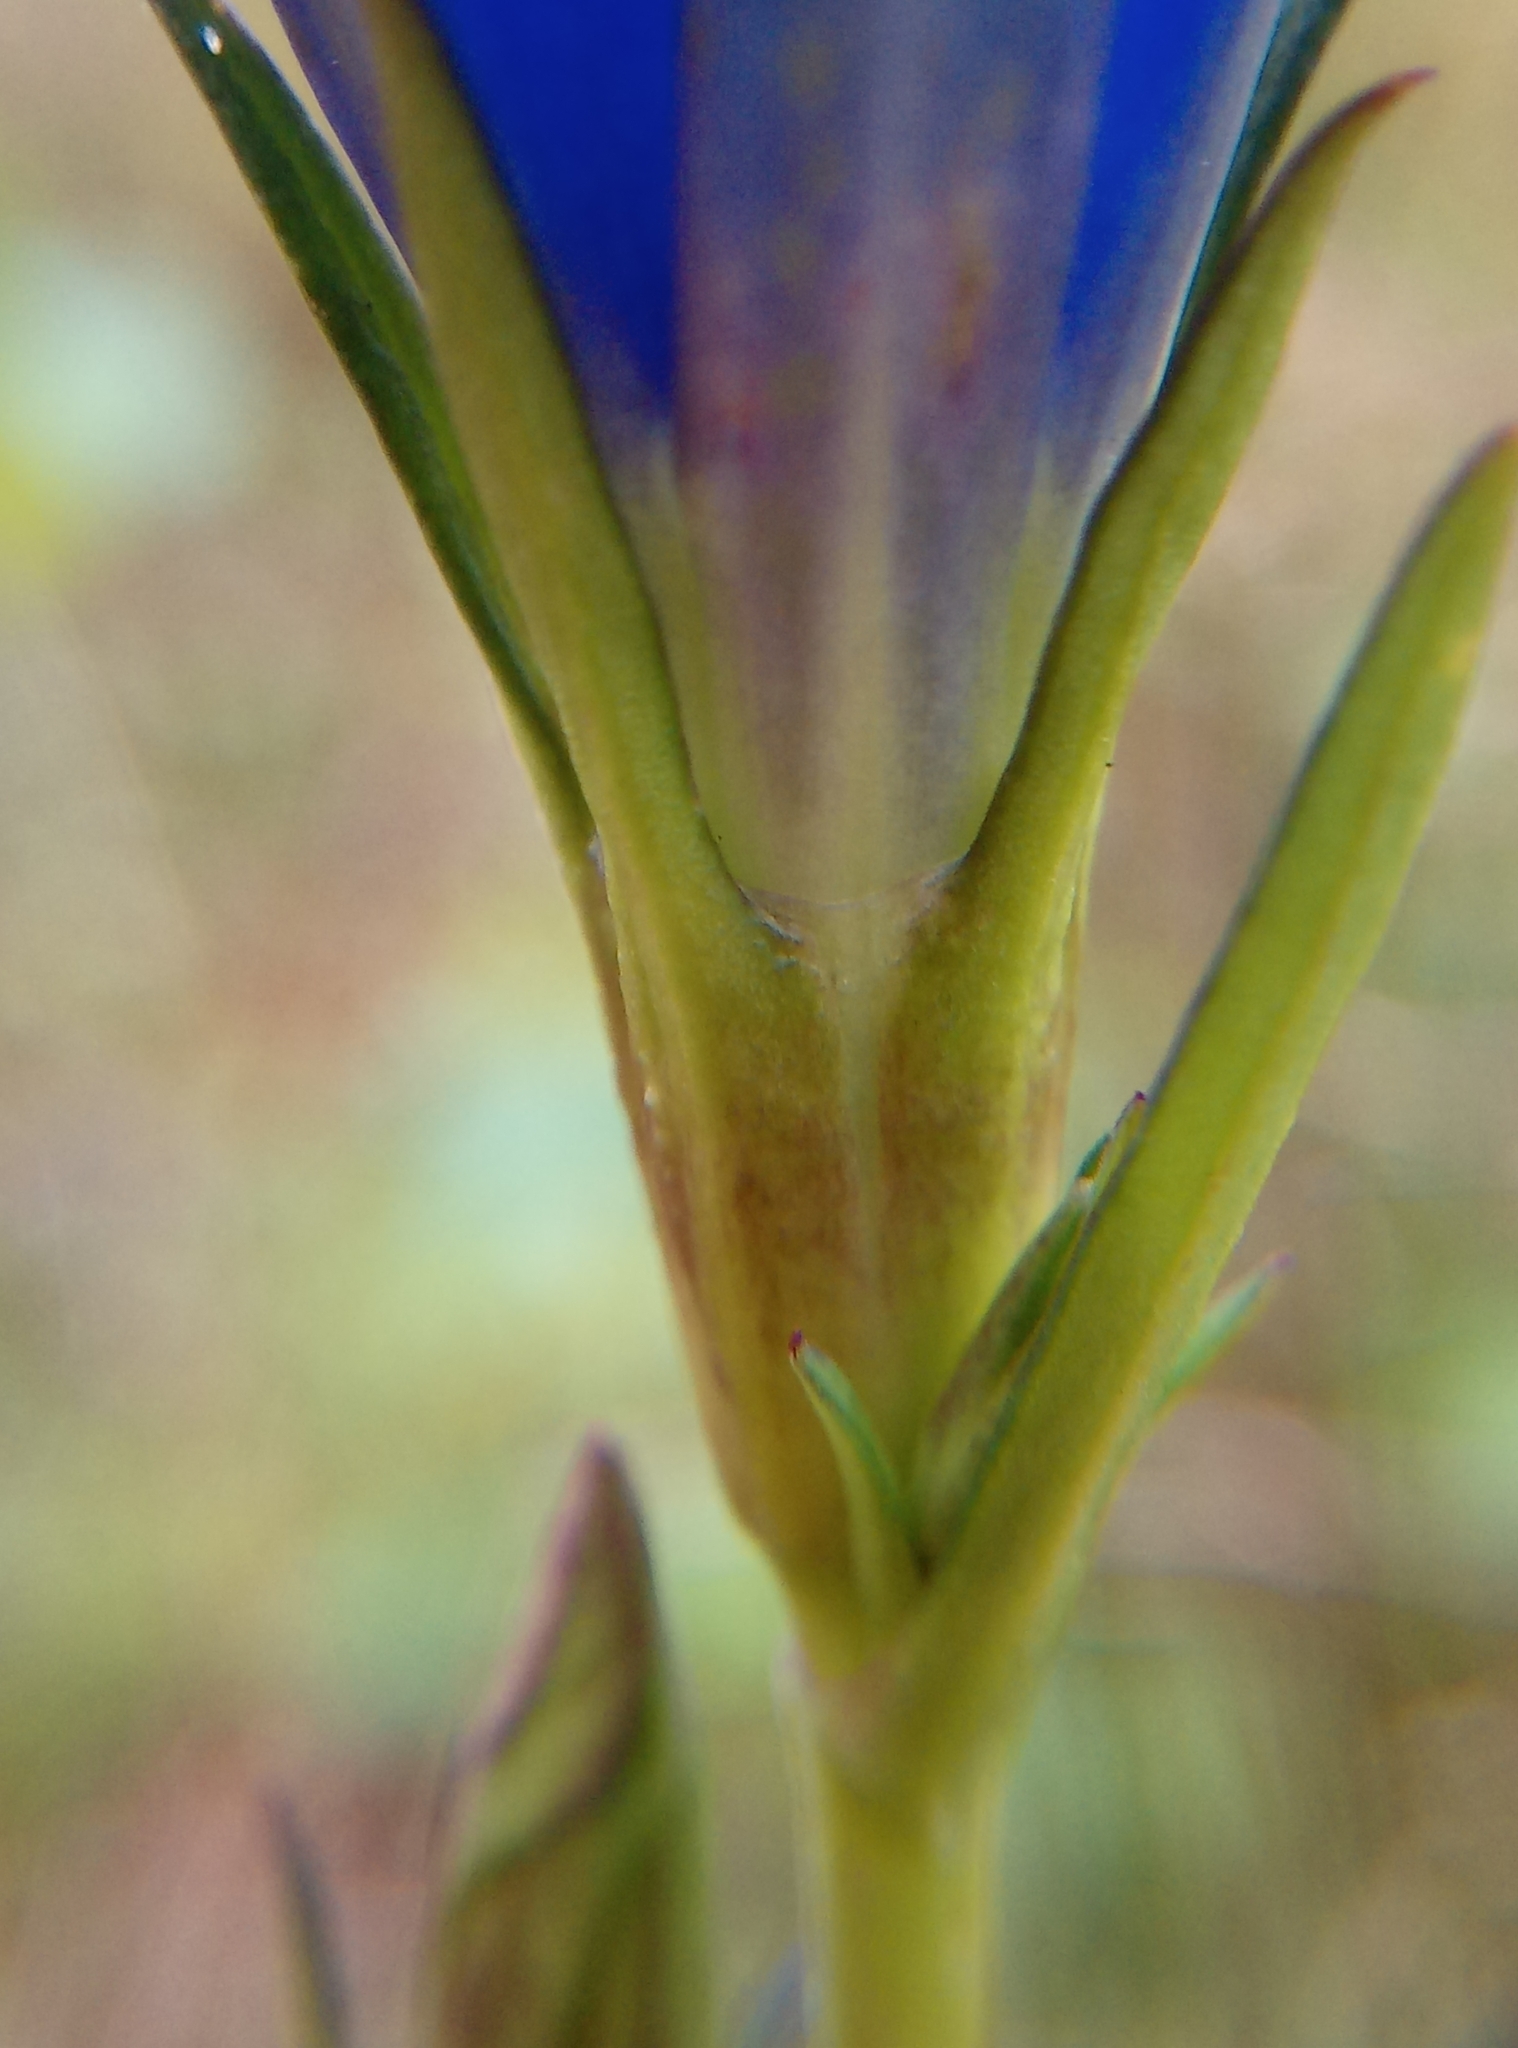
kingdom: Plantae
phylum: Tracheophyta
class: Magnoliopsida
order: Gentianales
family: Gentianaceae
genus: Gentiana
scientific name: Gentiana pneumonanthe
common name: Marsh gentian
